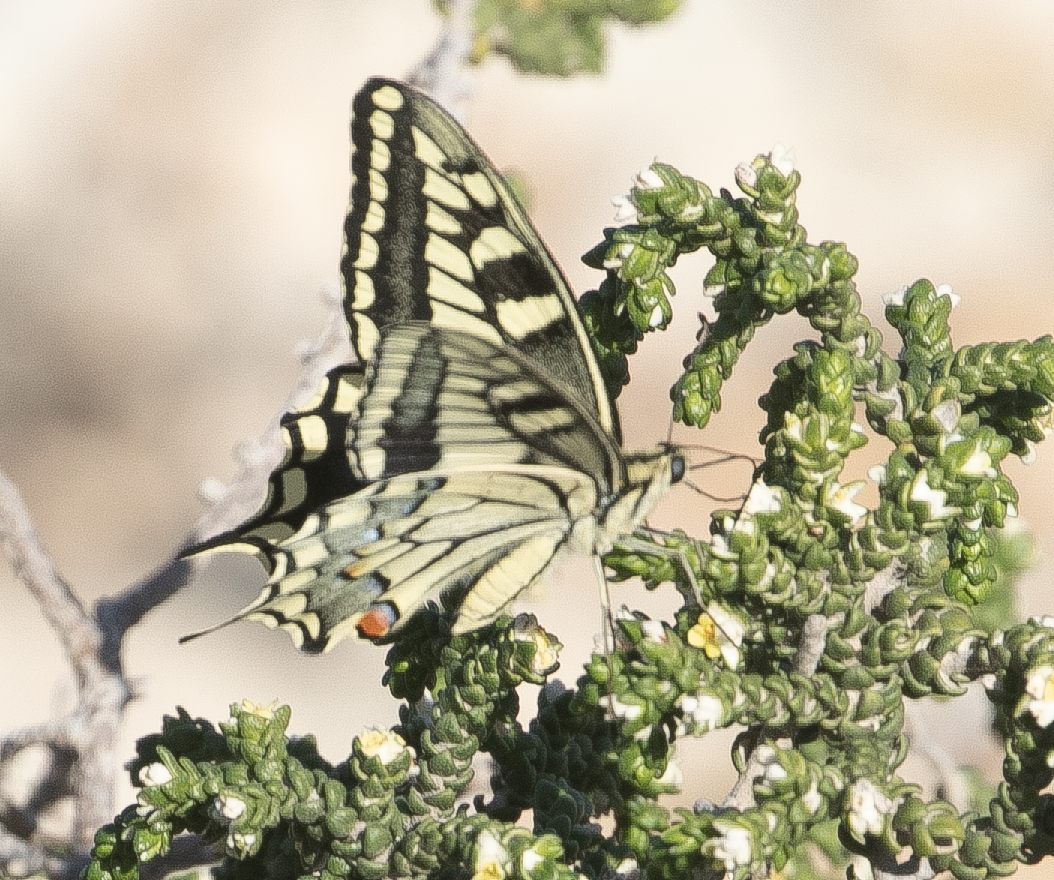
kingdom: Animalia
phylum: Arthropoda
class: Insecta
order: Lepidoptera
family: Papilionidae
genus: Papilio
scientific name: Papilio machaon
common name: Swallowtail
